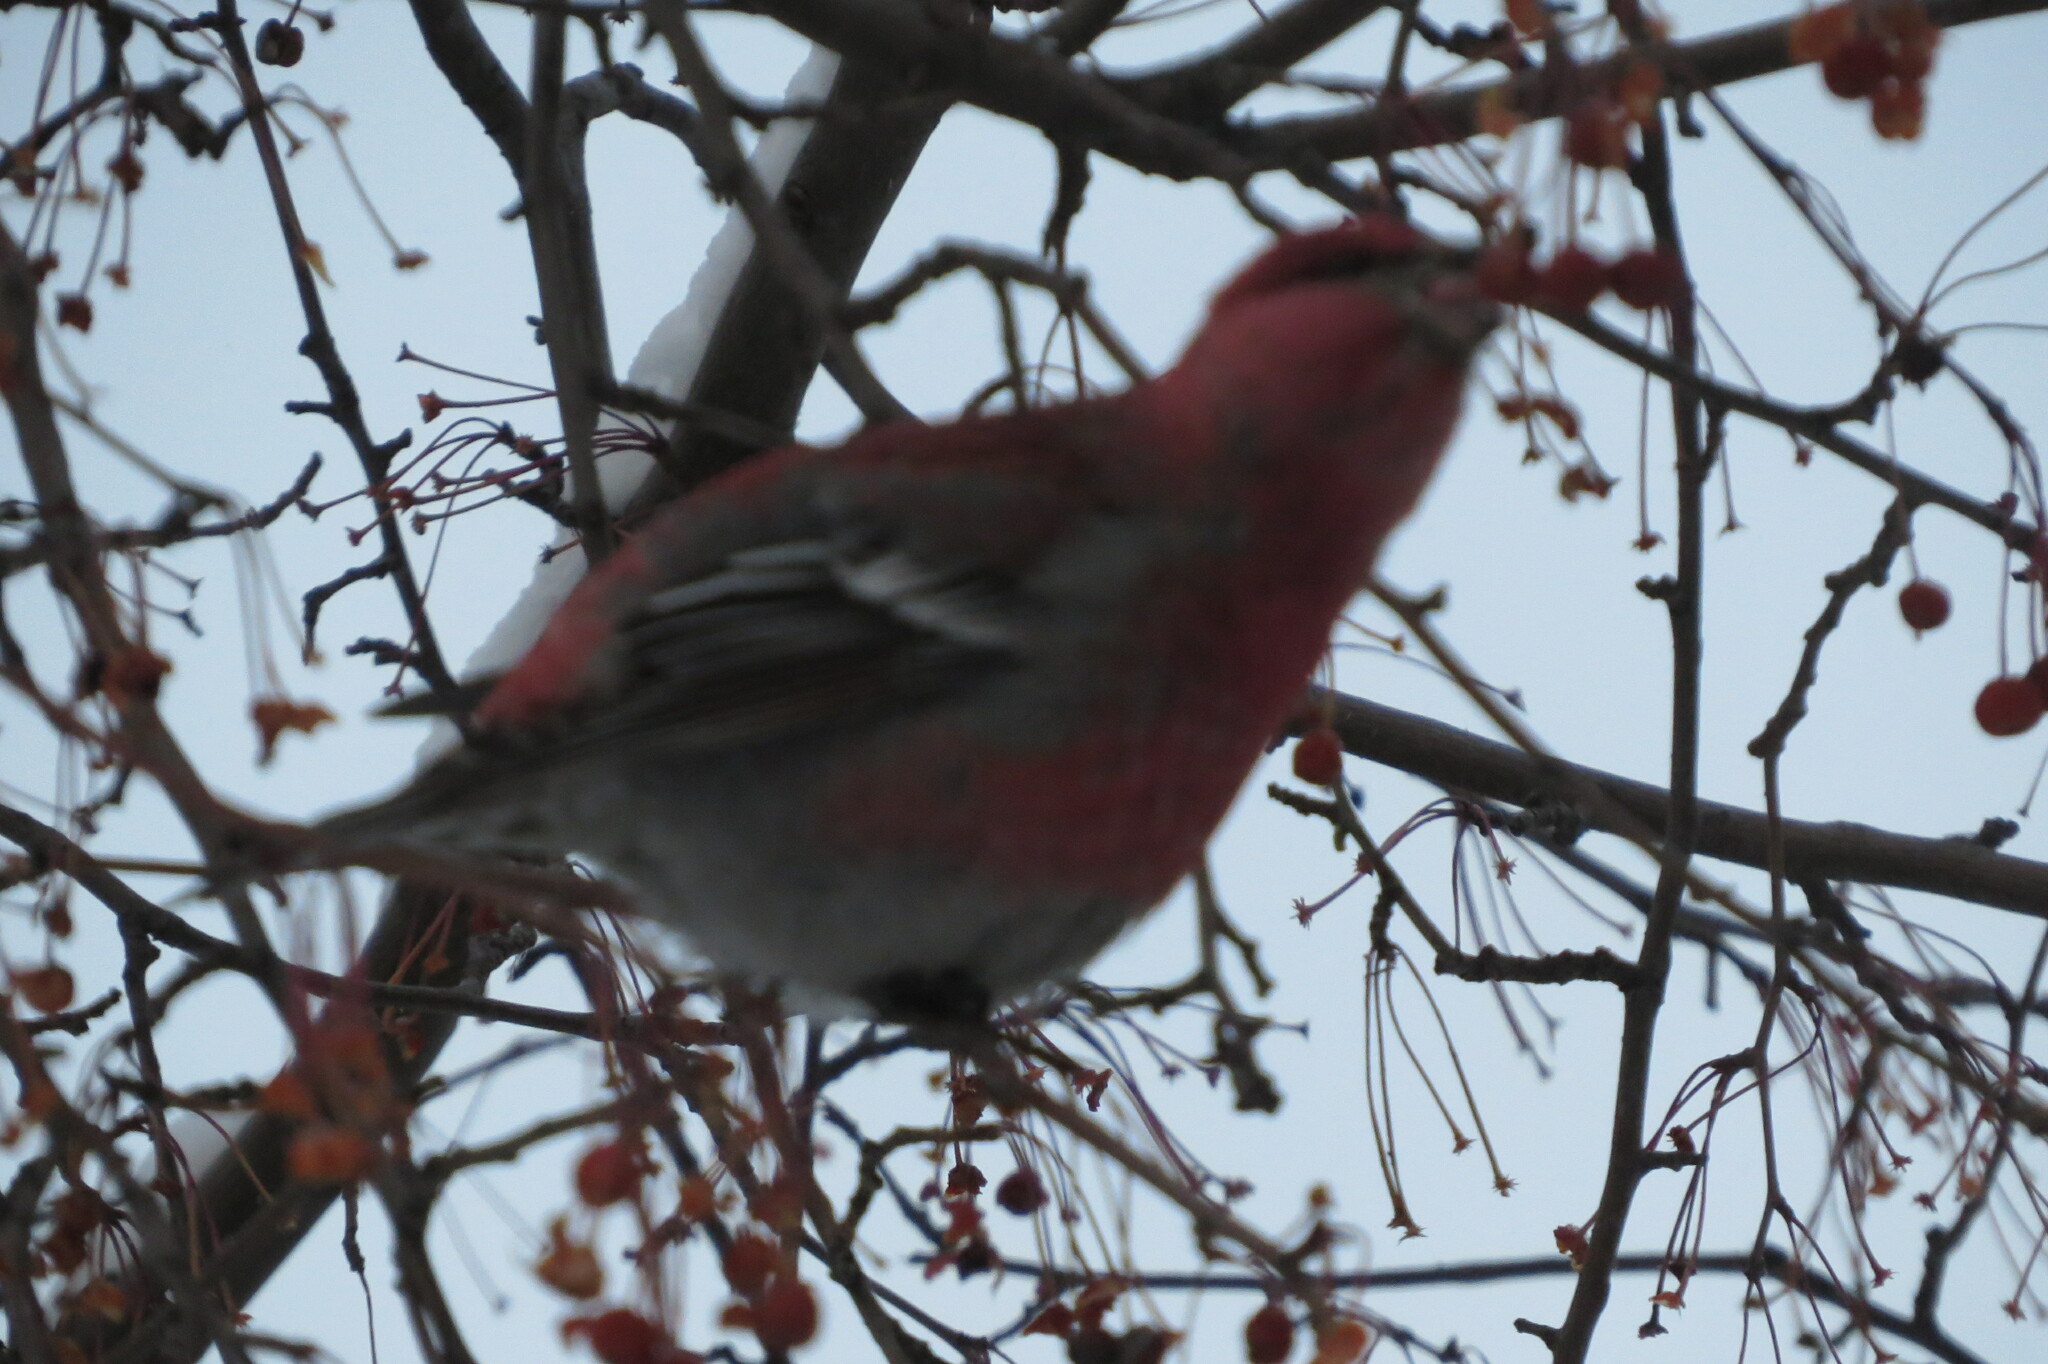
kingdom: Animalia
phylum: Chordata
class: Aves
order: Passeriformes
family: Fringillidae
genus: Pinicola
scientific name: Pinicola enucleator
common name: Pine grosbeak
